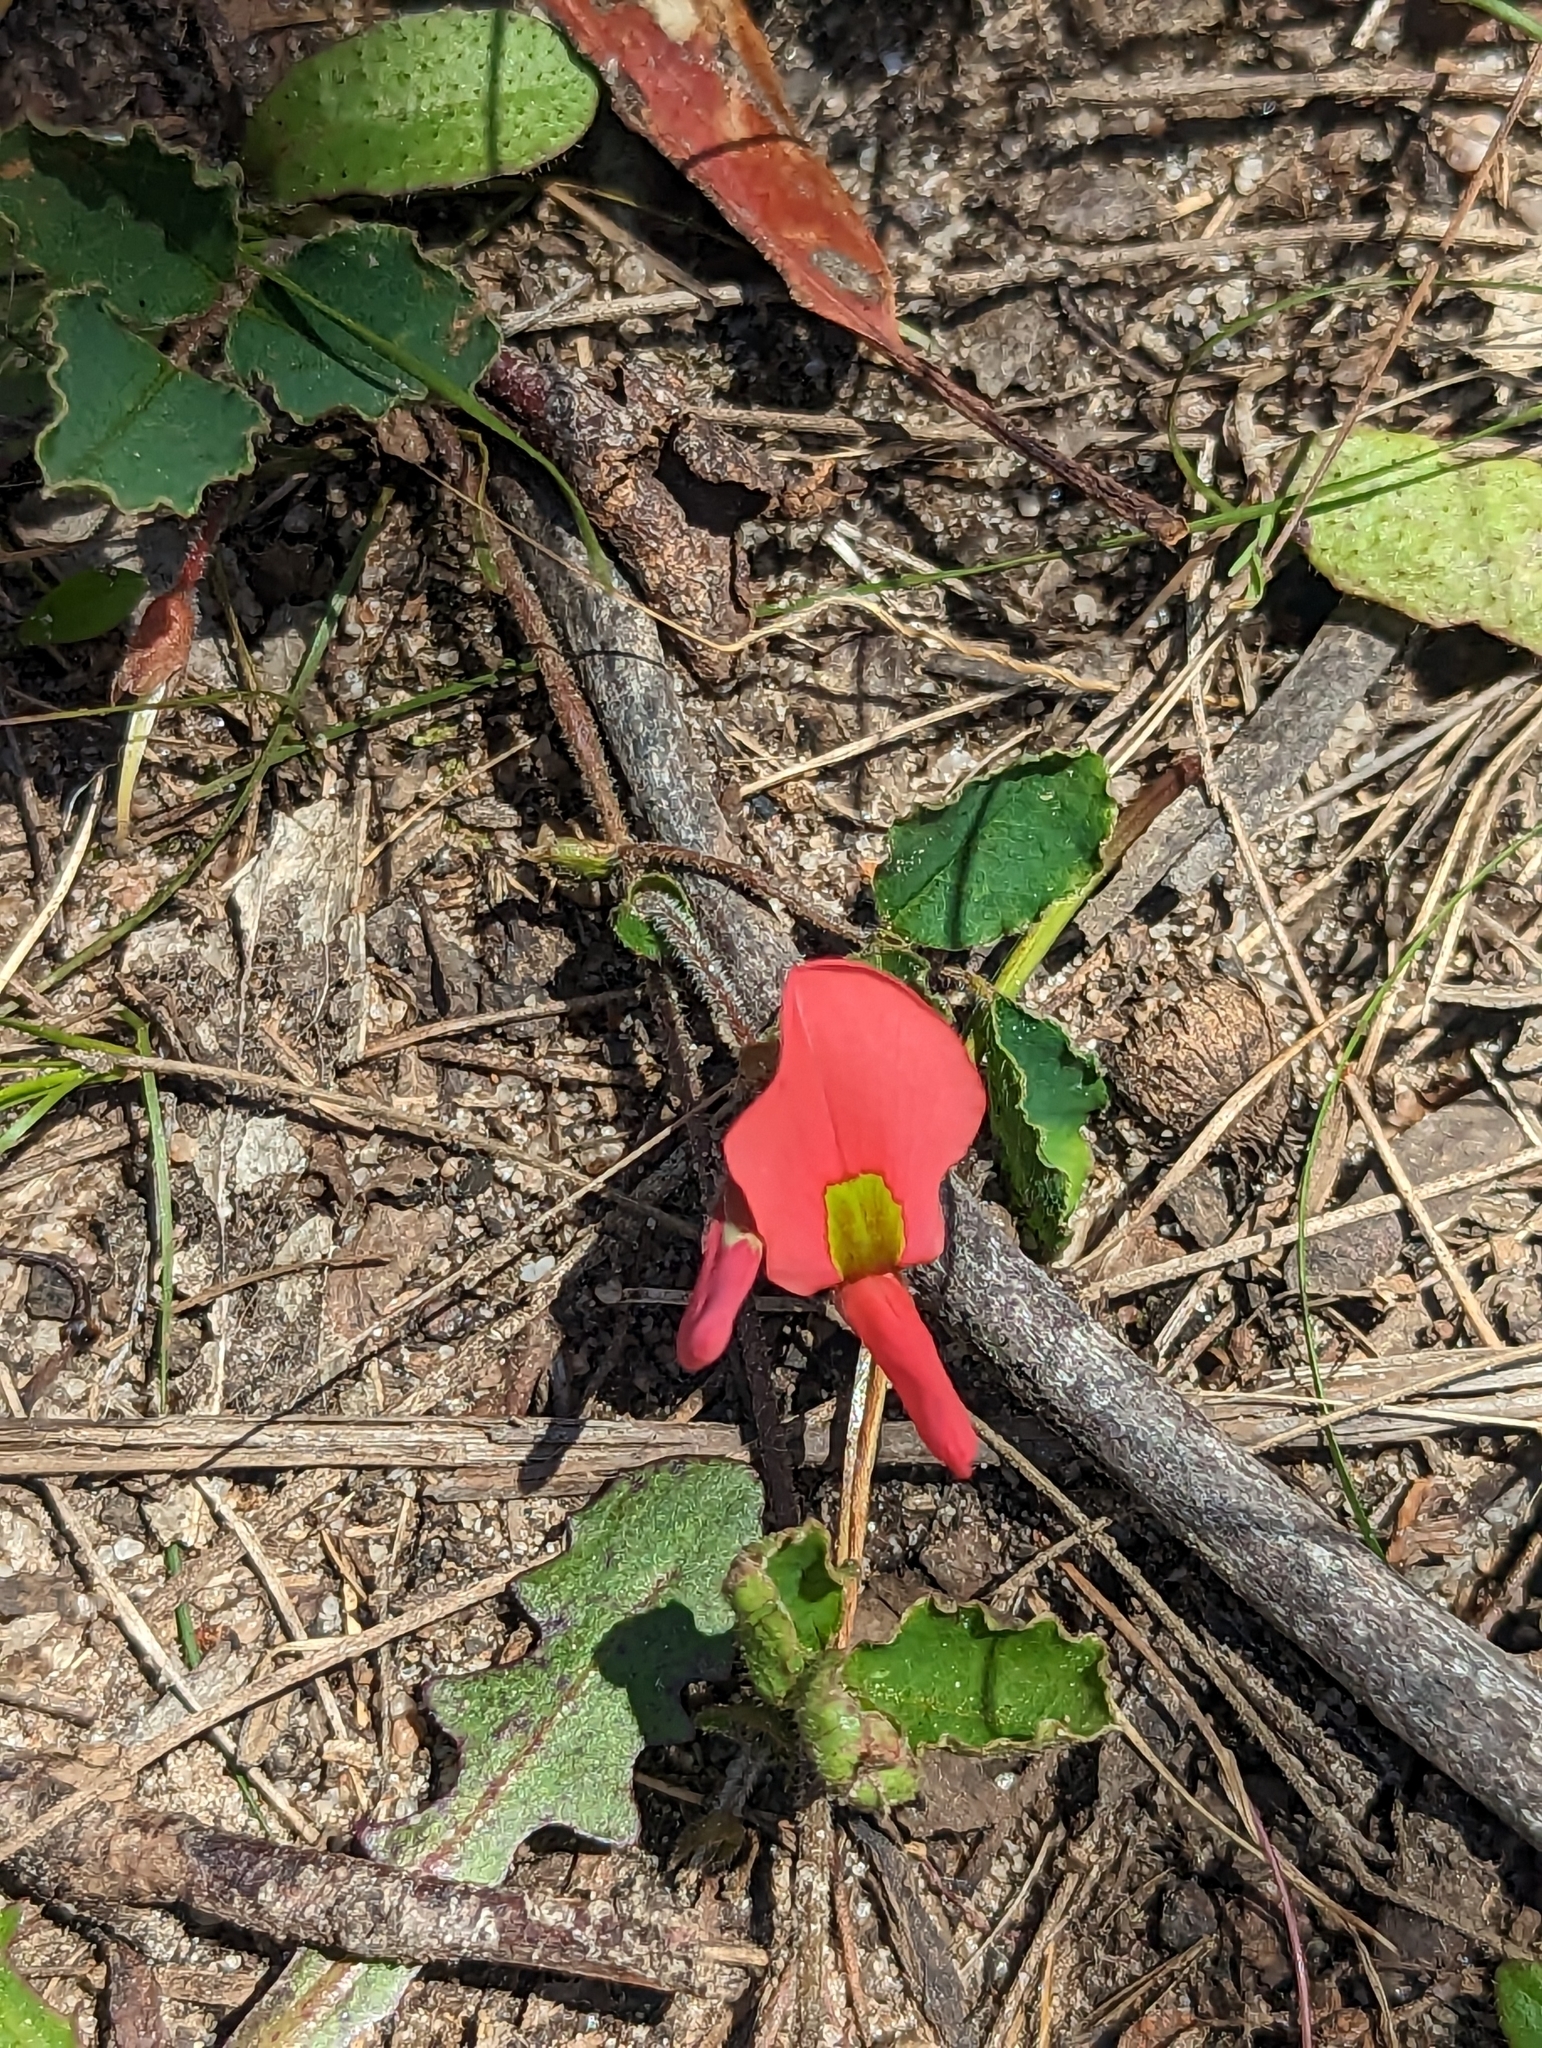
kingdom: Plantae
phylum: Tracheophyta
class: Magnoliopsida
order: Fabales
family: Fabaceae
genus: Kennedia
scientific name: Kennedia prostrata
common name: Running-postman
